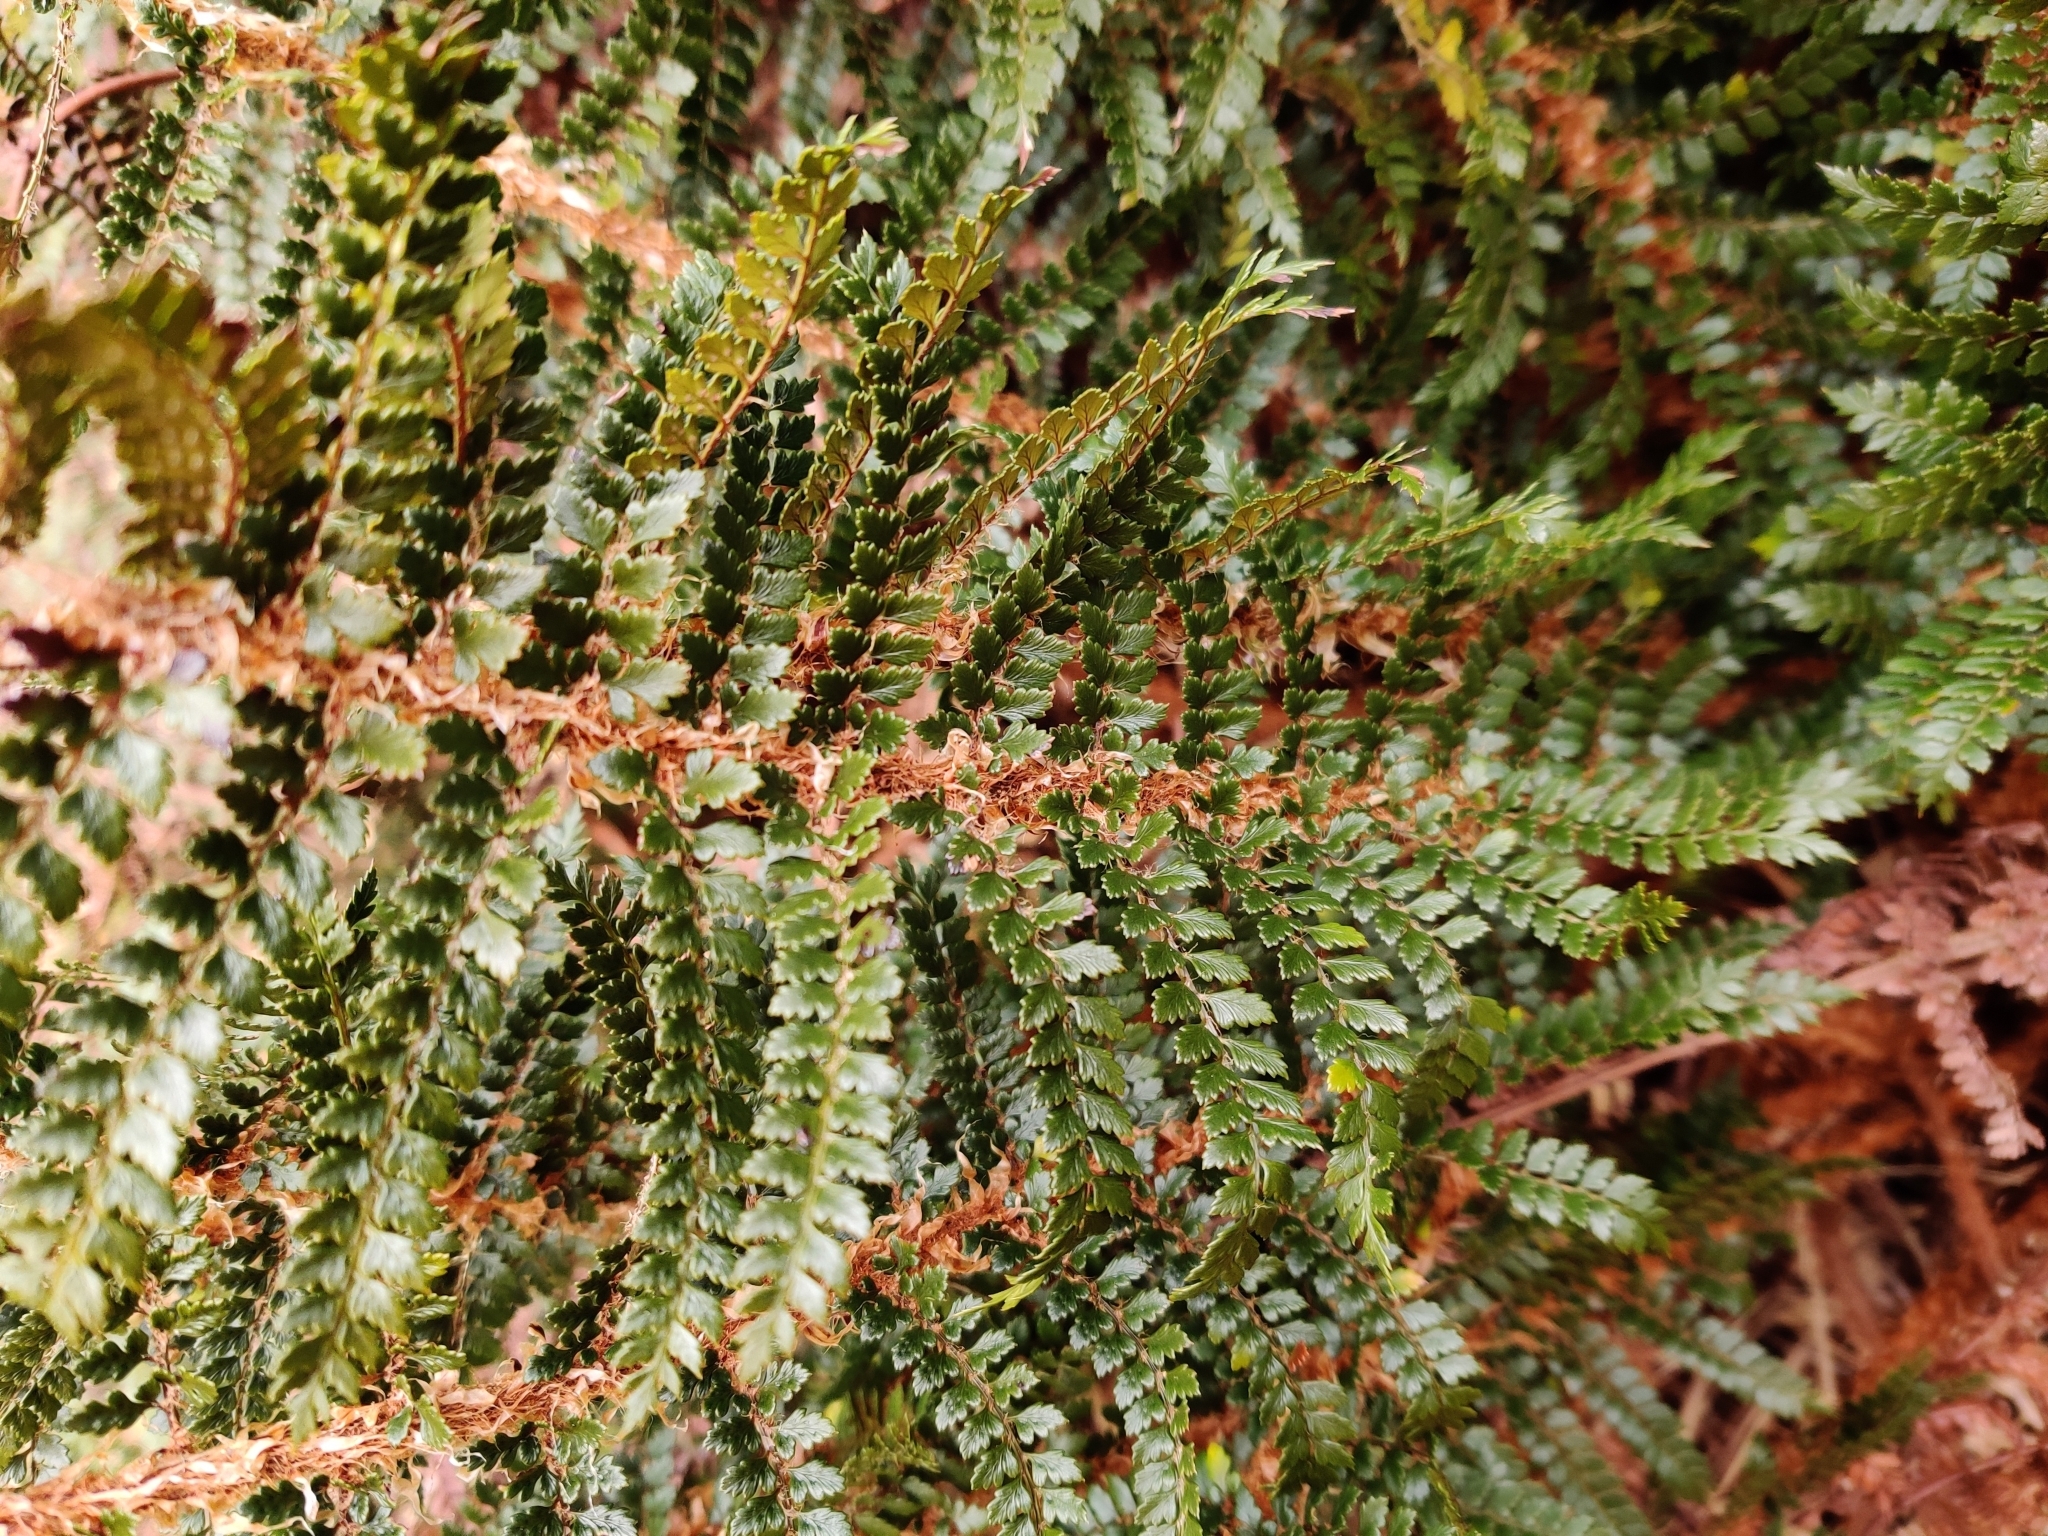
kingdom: Plantae
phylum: Tracheophyta
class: Polypodiopsida
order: Polypodiales
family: Dryopteridaceae
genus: Polystichum
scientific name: Polystichum vestitum
